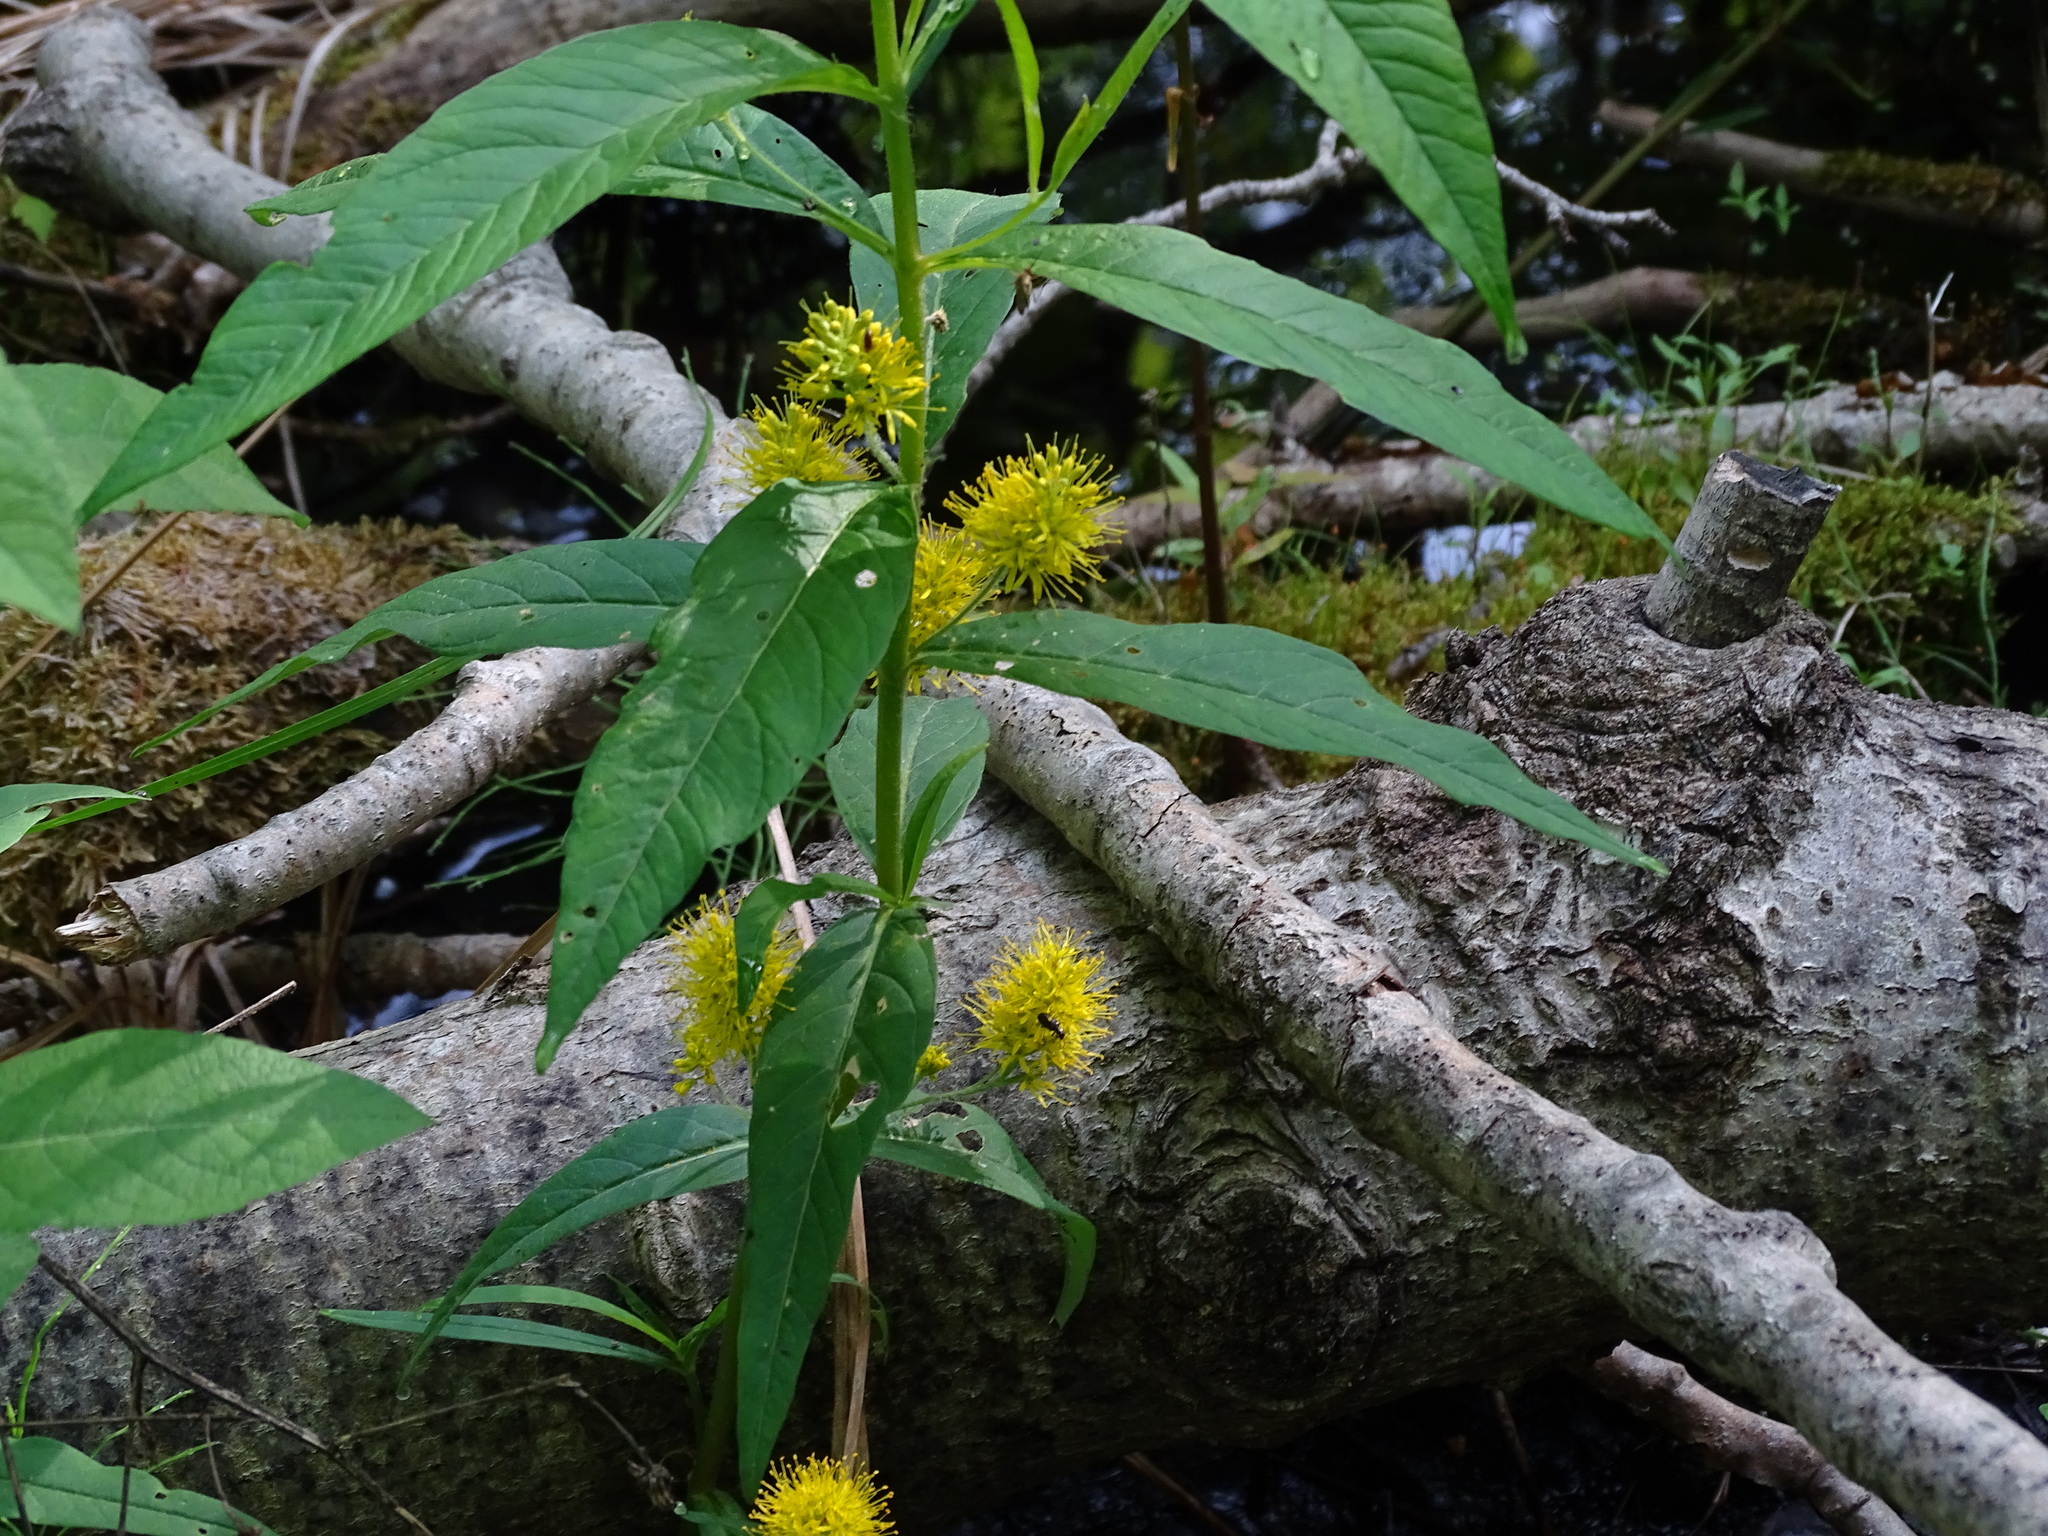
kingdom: Plantae
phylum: Tracheophyta
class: Magnoliopsida
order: Ericales
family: Primulaceae
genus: Lysimachia
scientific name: Lysimachia thyrsiflora
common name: Tufted loosestrife
